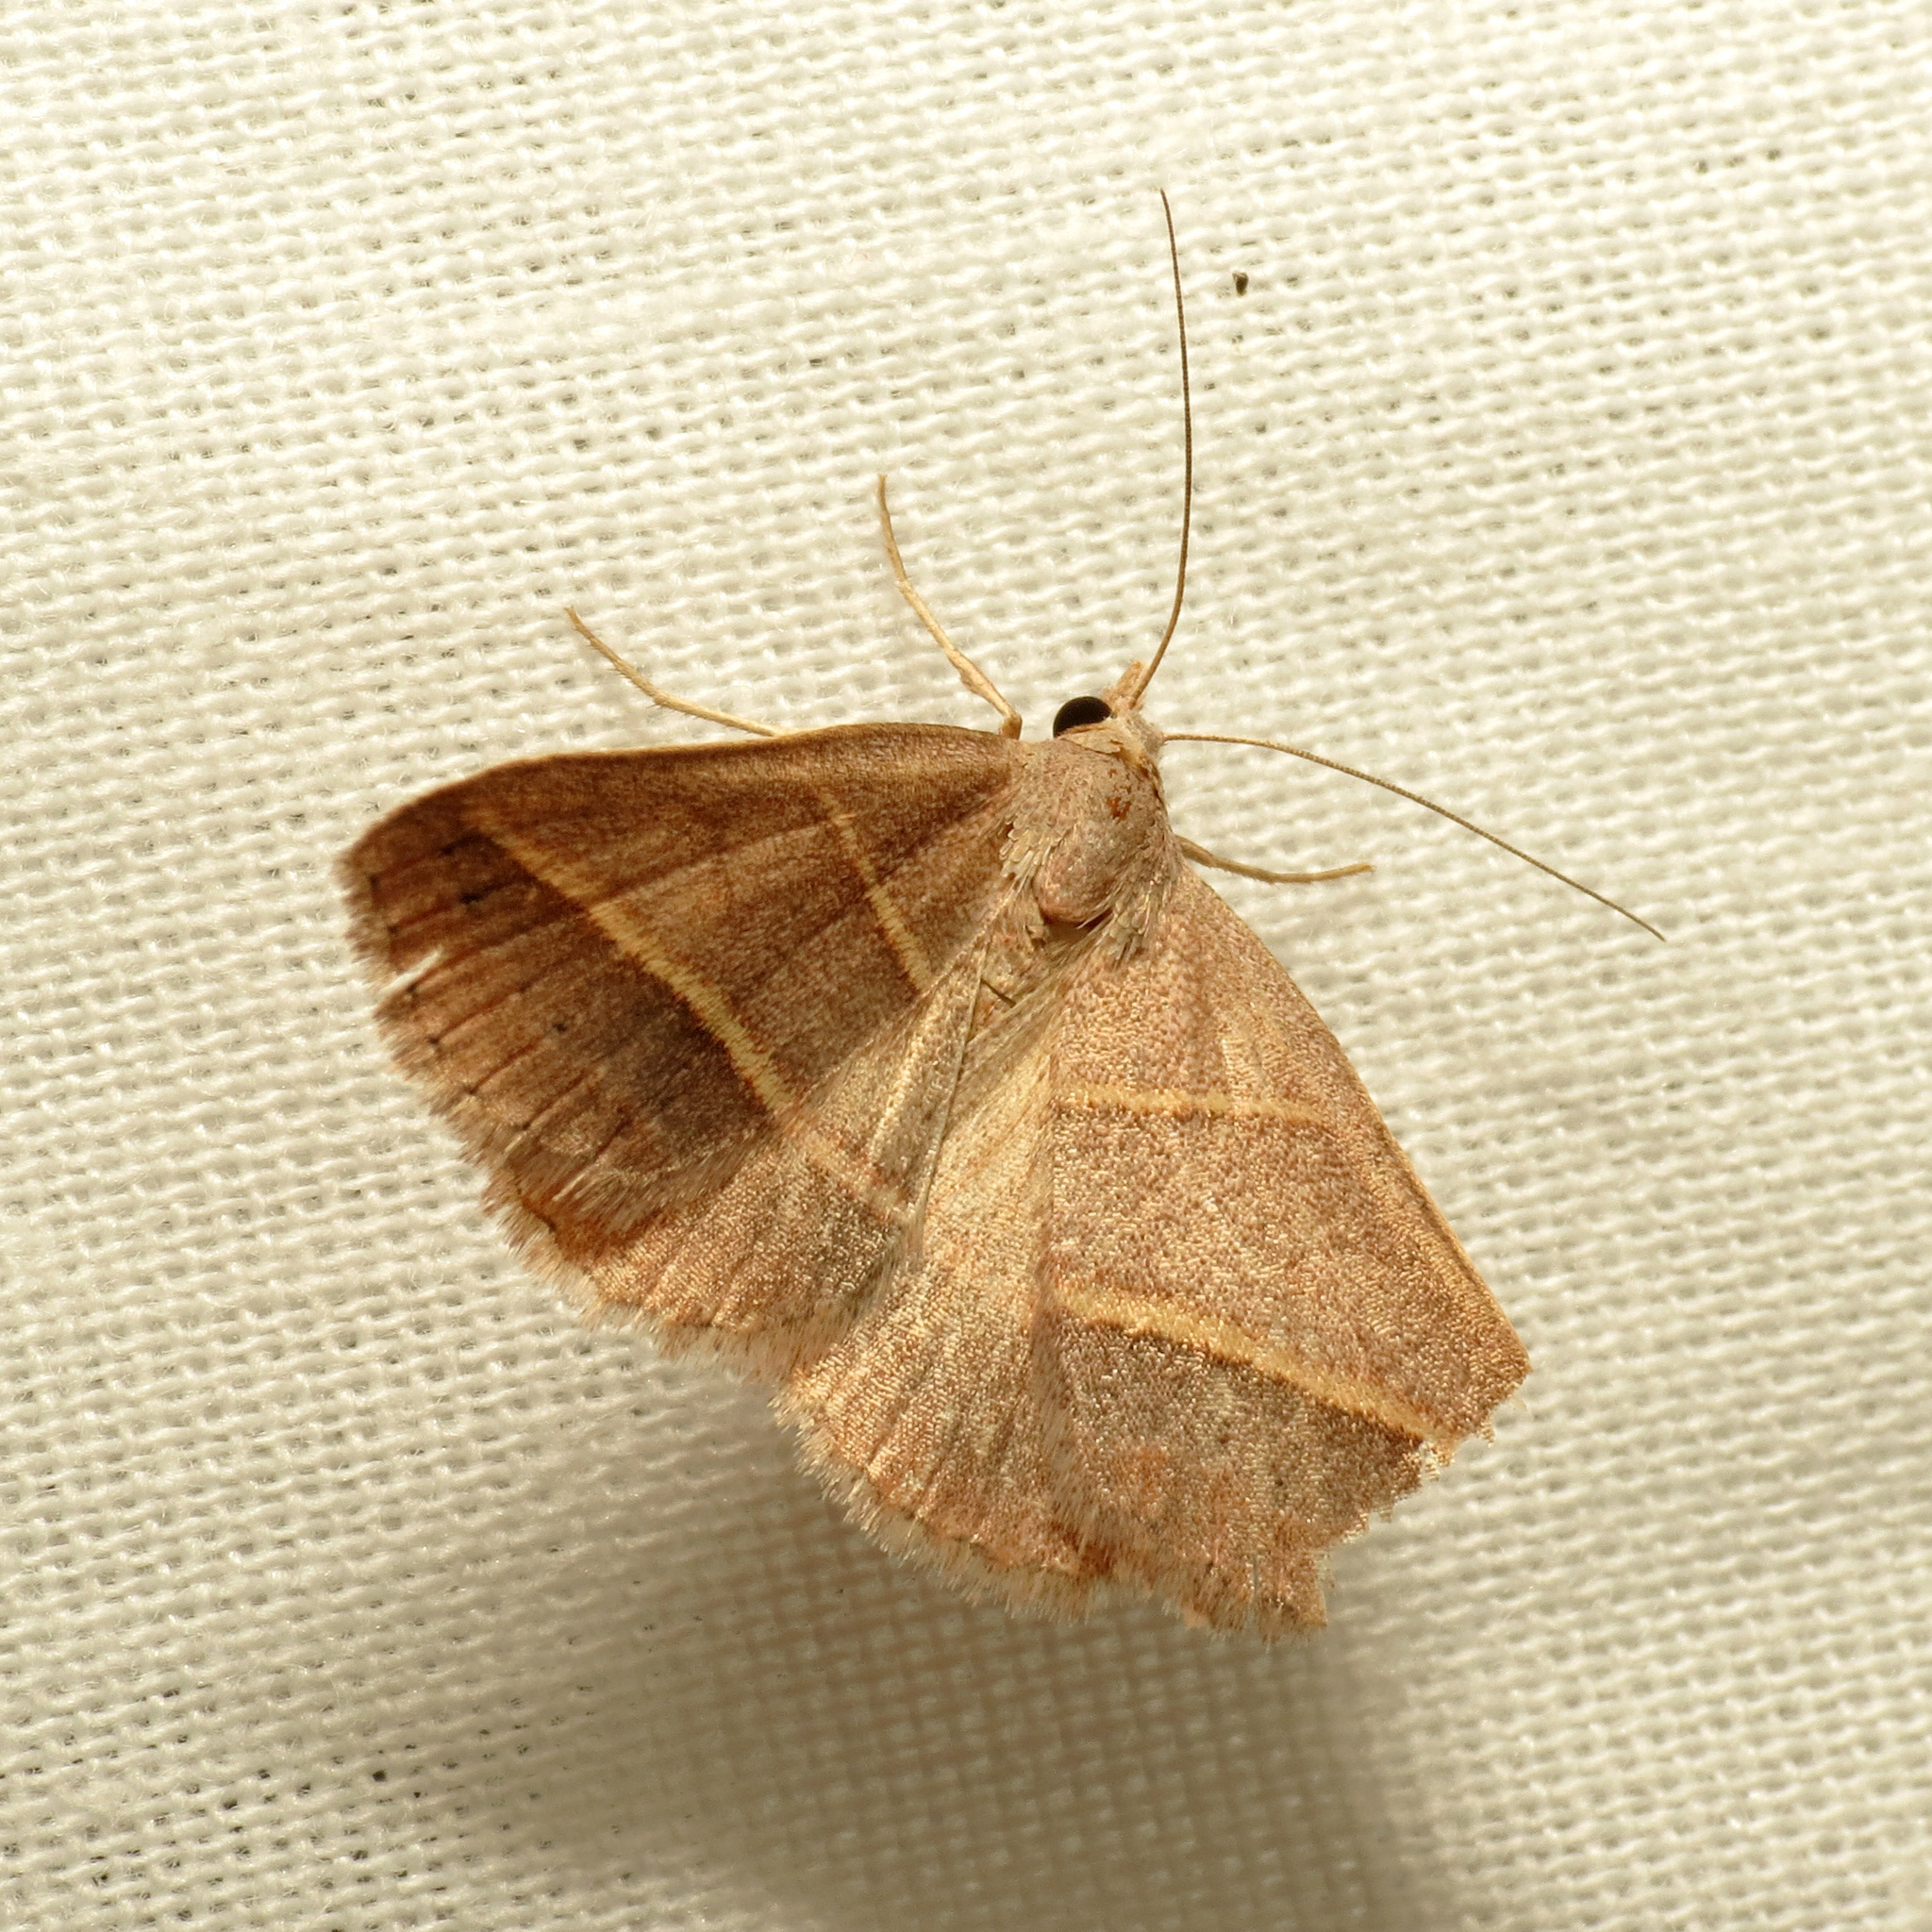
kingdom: Animalia
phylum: Arthropoda
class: Insecta
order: Lepidoptera
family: Erebidae
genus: Hemeroplanis
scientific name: Hemeroplanis parallela
